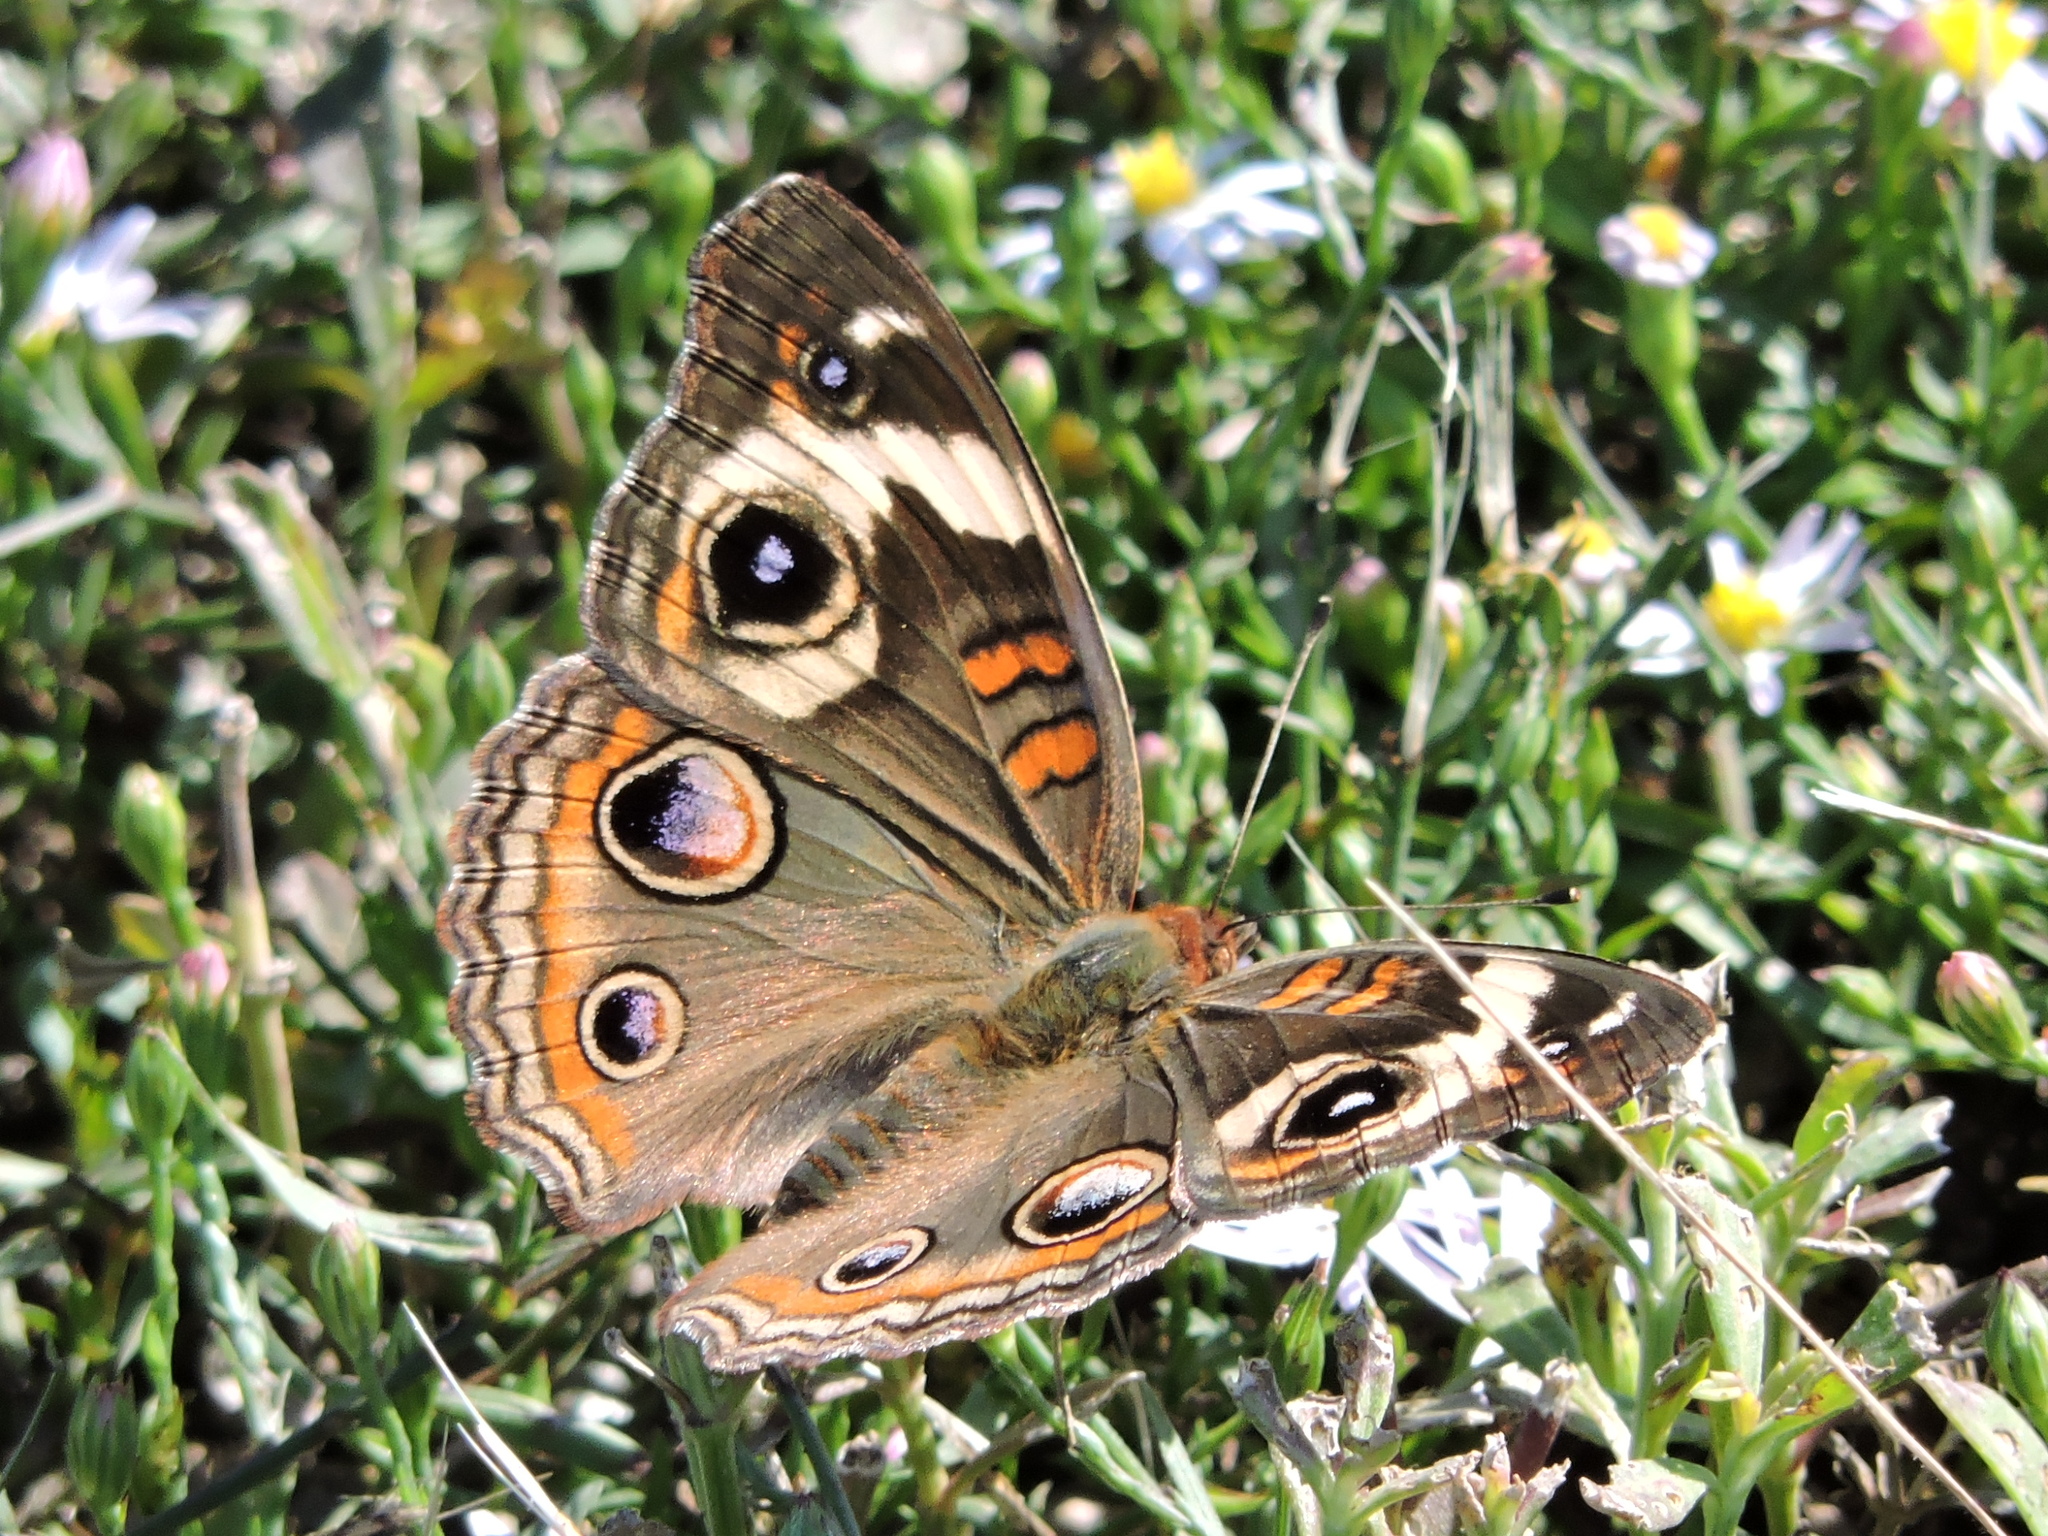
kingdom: Animalia
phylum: Arthropoda
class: Insecta
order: Lepidoptera
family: Nymphalidae
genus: Junonia
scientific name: Junonia coenia
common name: Common buckeye
